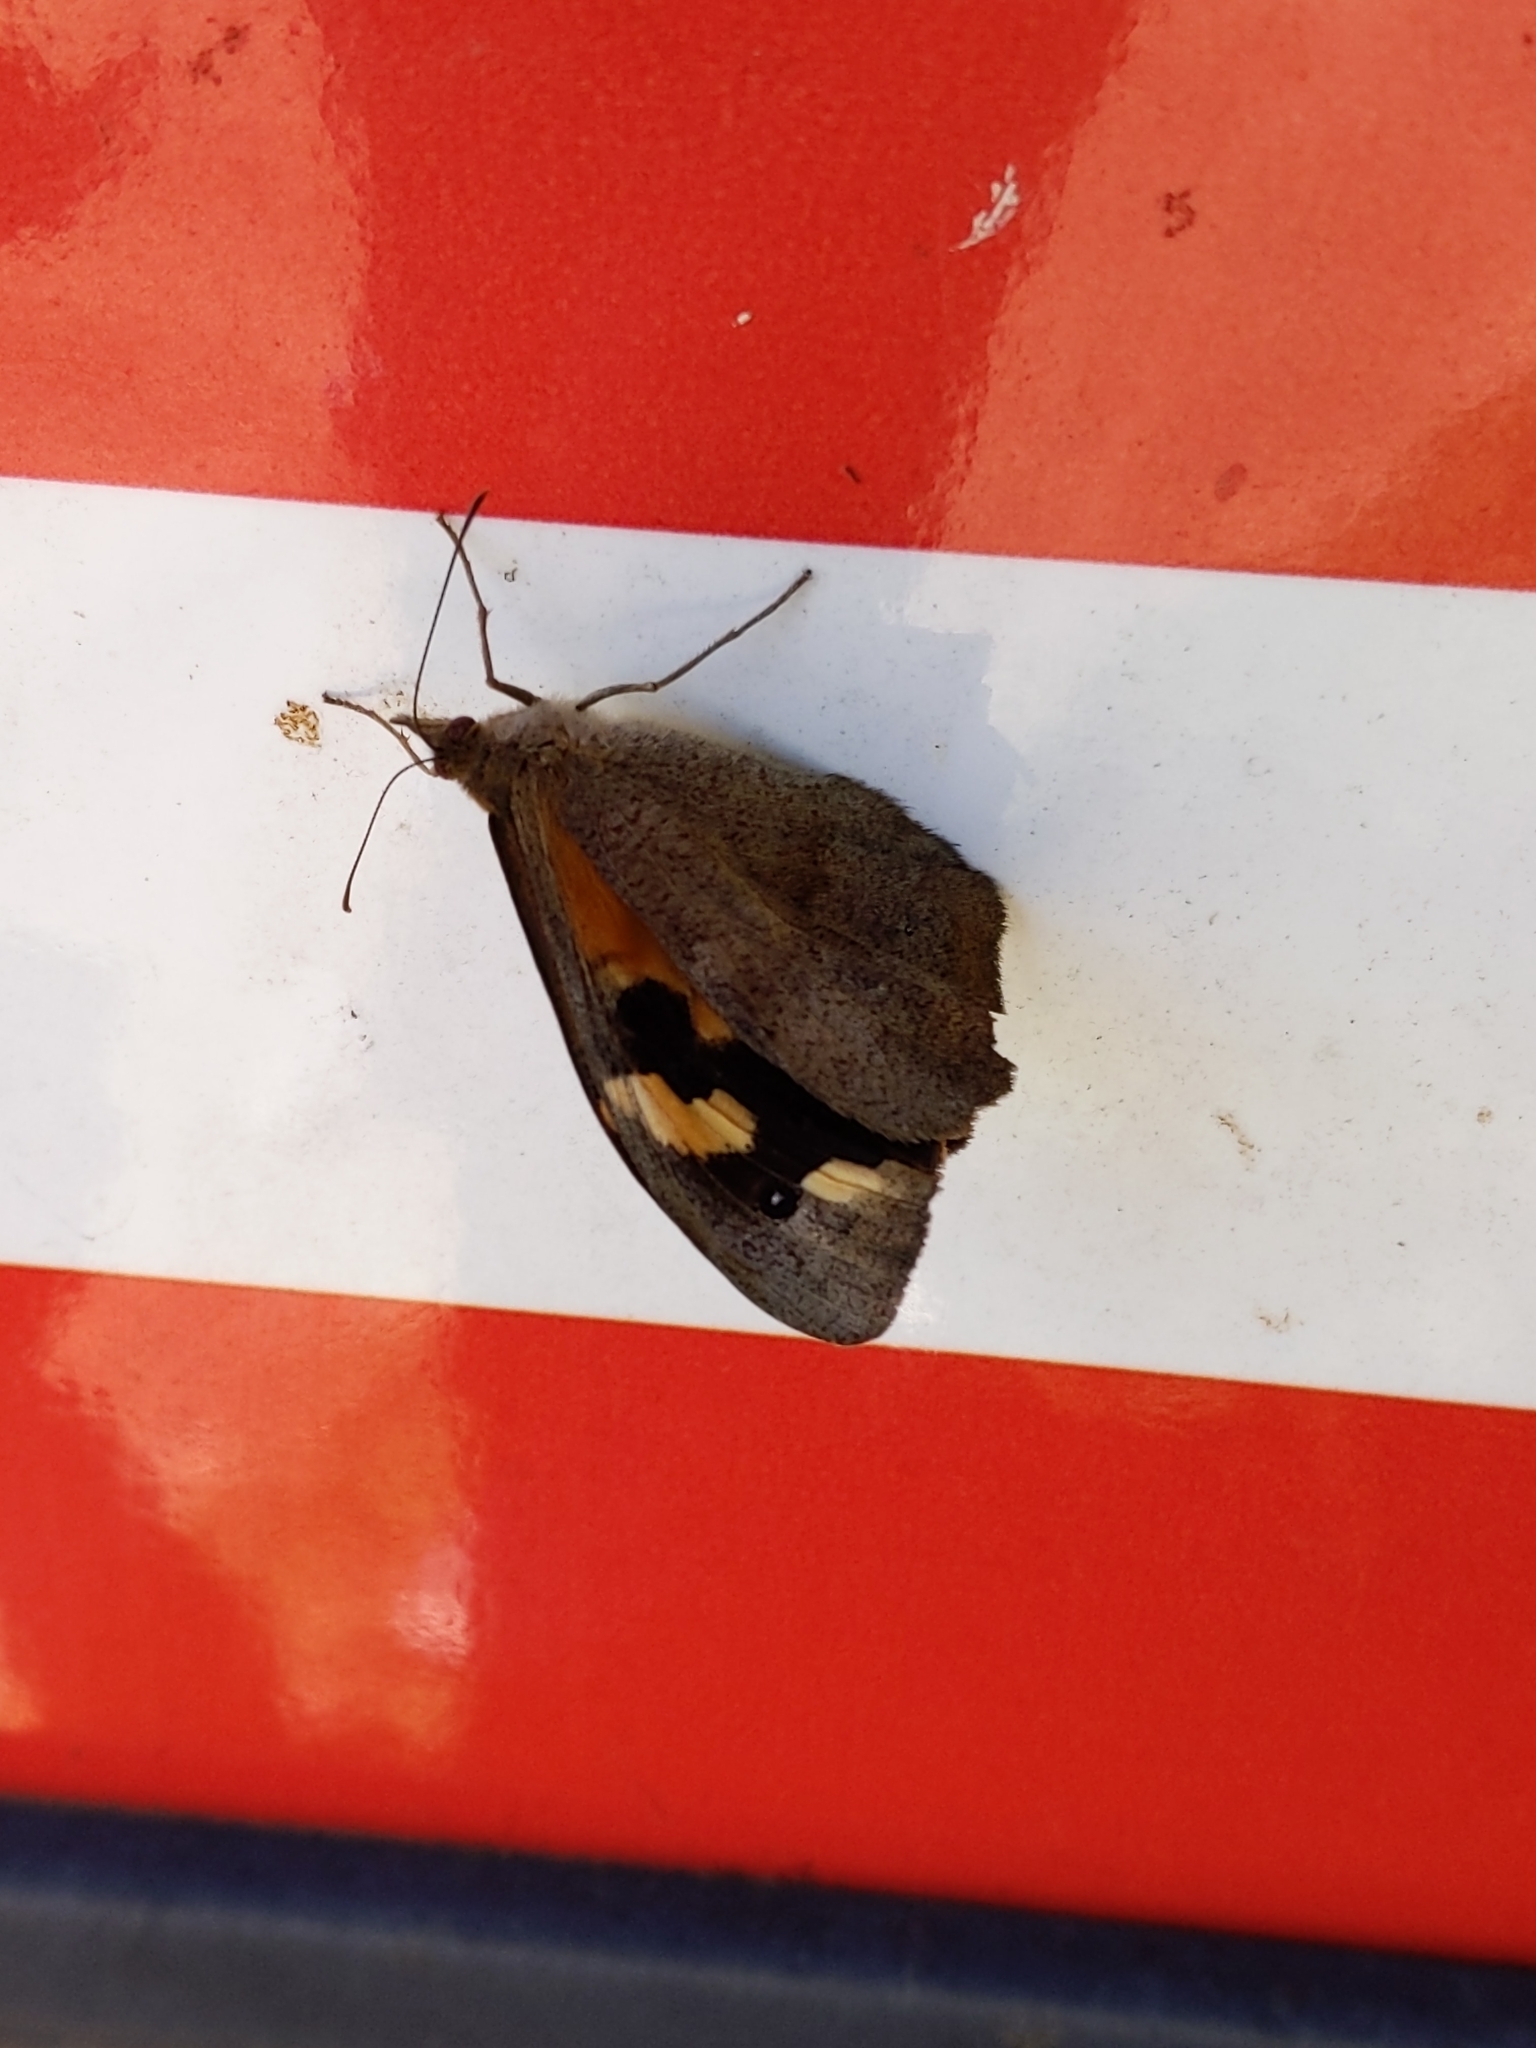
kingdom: Animalia
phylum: Arthropoda
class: Insecta
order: Lepidoptera
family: Nymphalidae
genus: Heteronympha
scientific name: Heteronympha merope
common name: Common brown
